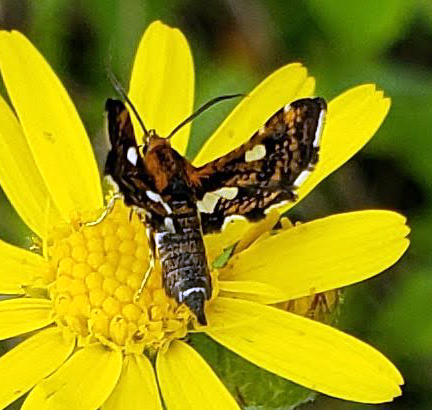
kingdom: Animalia
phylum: Arthropoda
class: Insecta
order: Lepidoptera
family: Thyrididae
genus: Thyris
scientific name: Thyris maculata
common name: Spotted thyris moth
